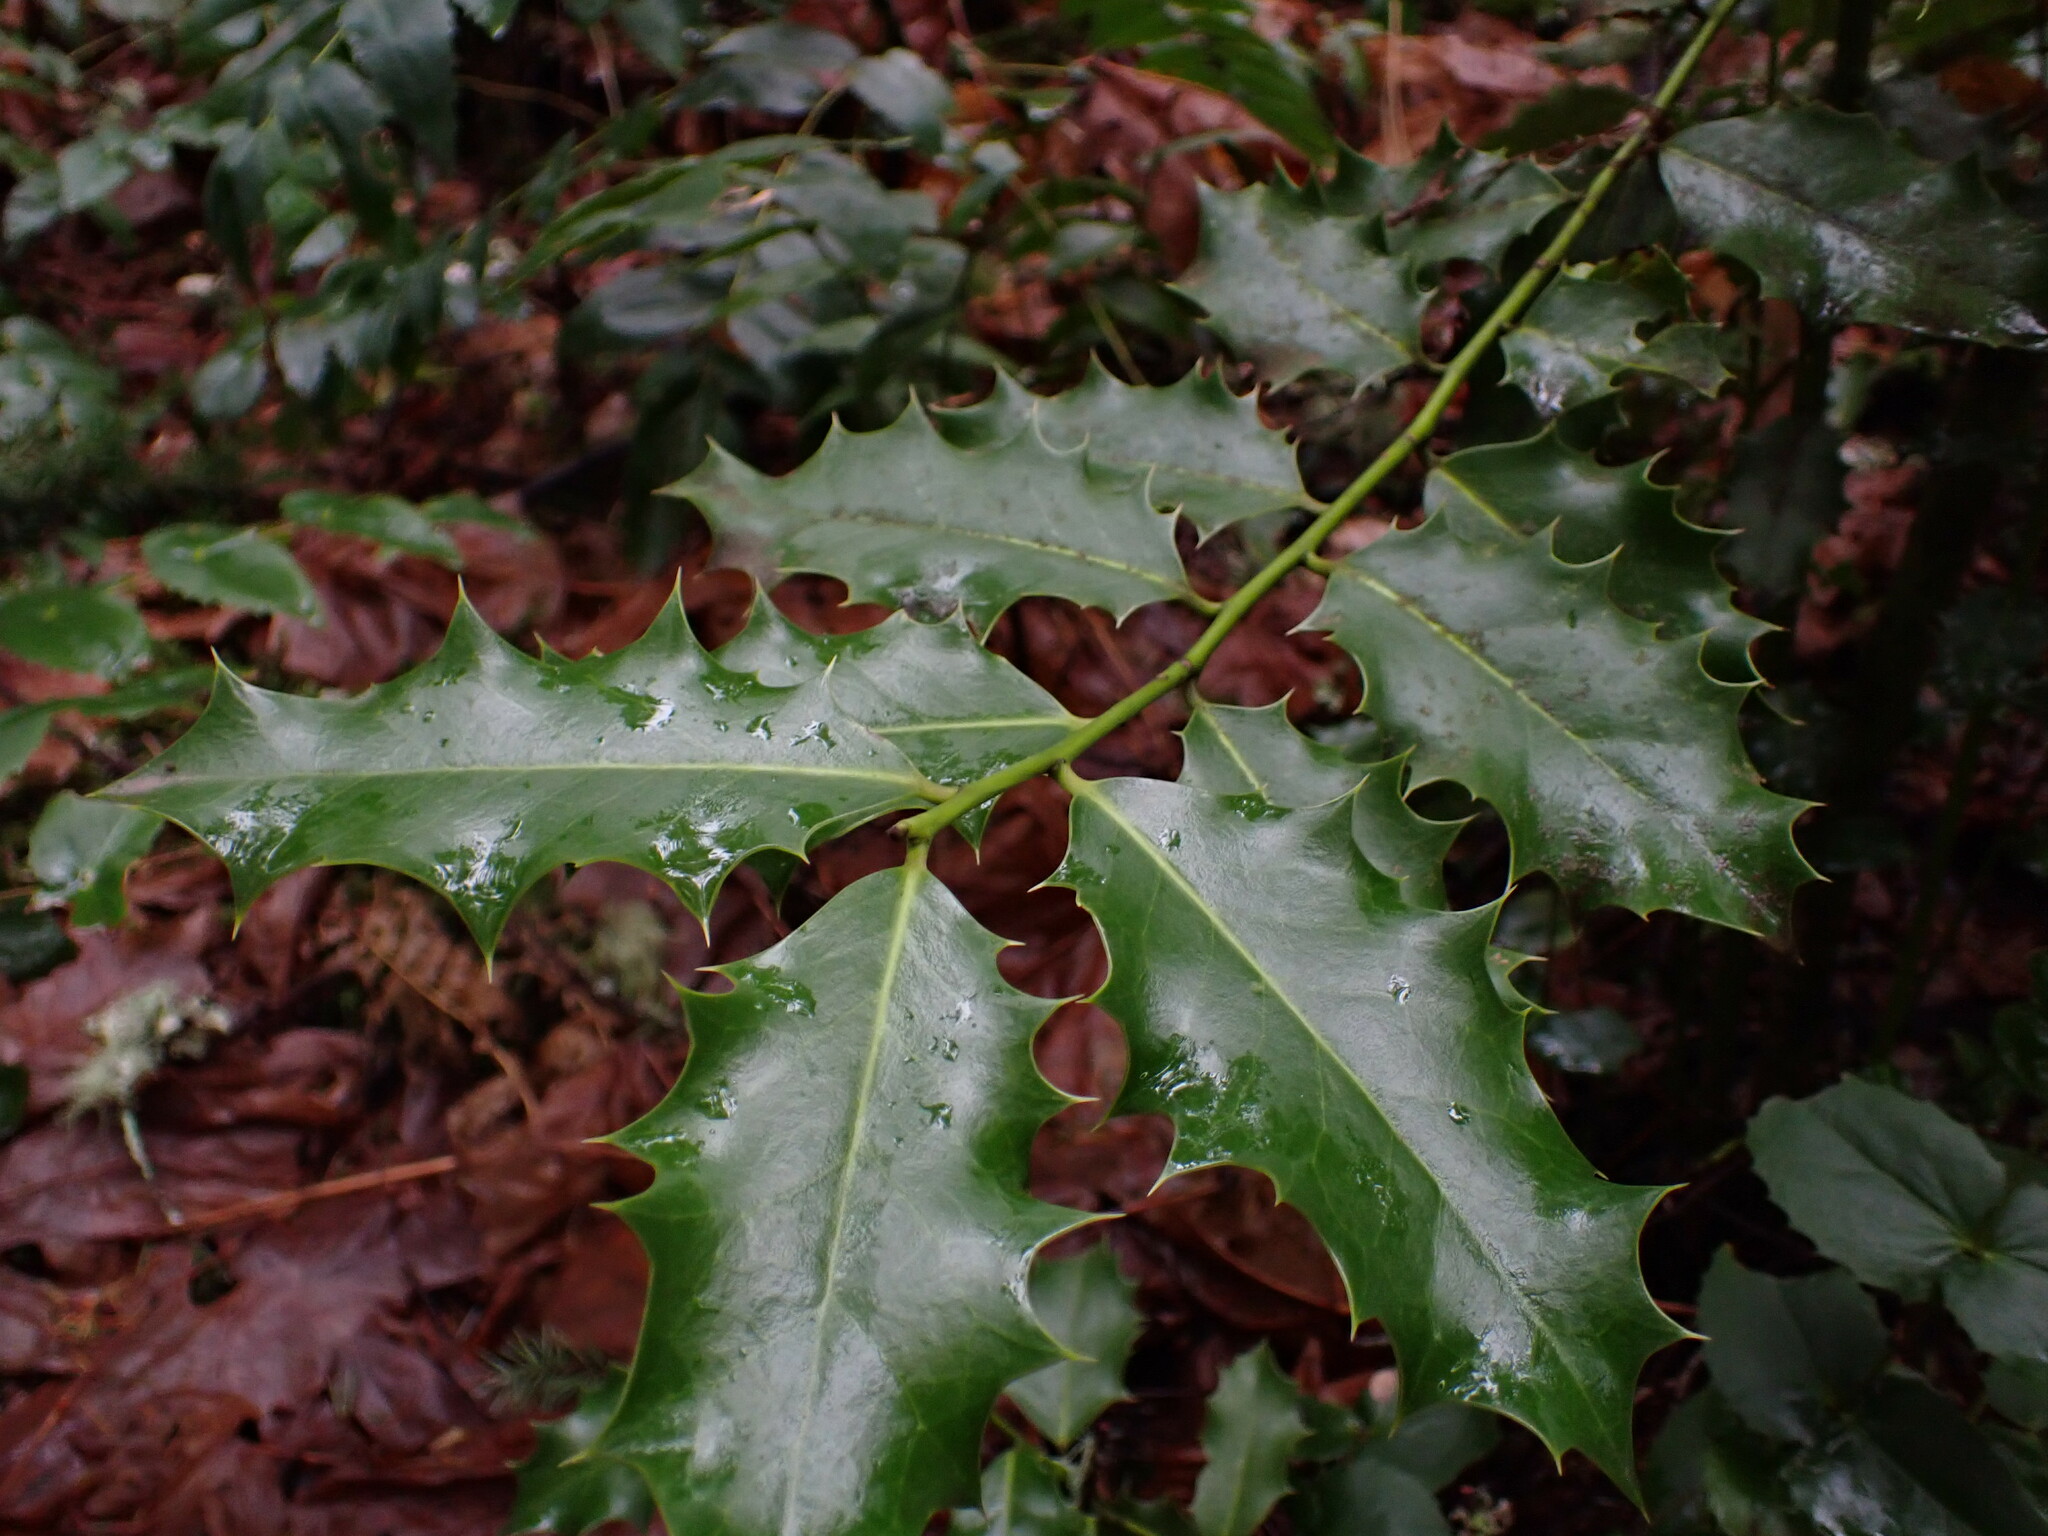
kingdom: Plantae
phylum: Tracheophyta
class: Magnoliopsida
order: Aquifoliales
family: Aquifoliaceae
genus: Ilex
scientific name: Ilex aquifolium
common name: English holly
